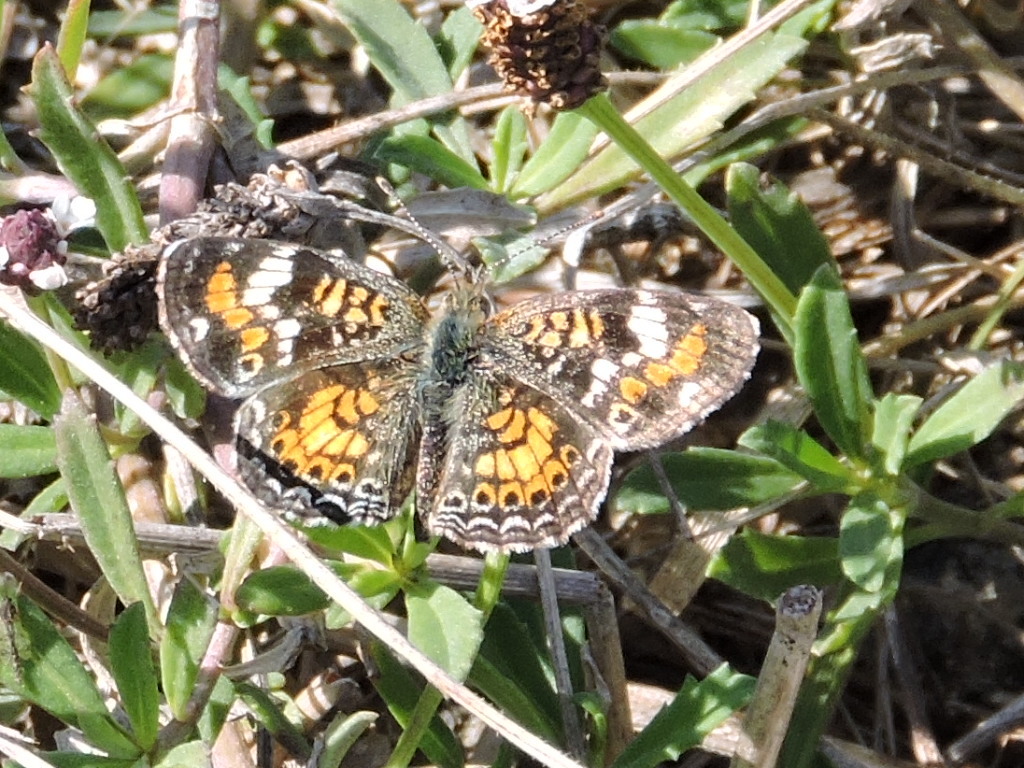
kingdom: Animalia
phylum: Arthropoda
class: Insecta
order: Lepidoptera
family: Nymphalidae
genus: Phyciodes
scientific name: Phyciodes phaon
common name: Phaon crescent
